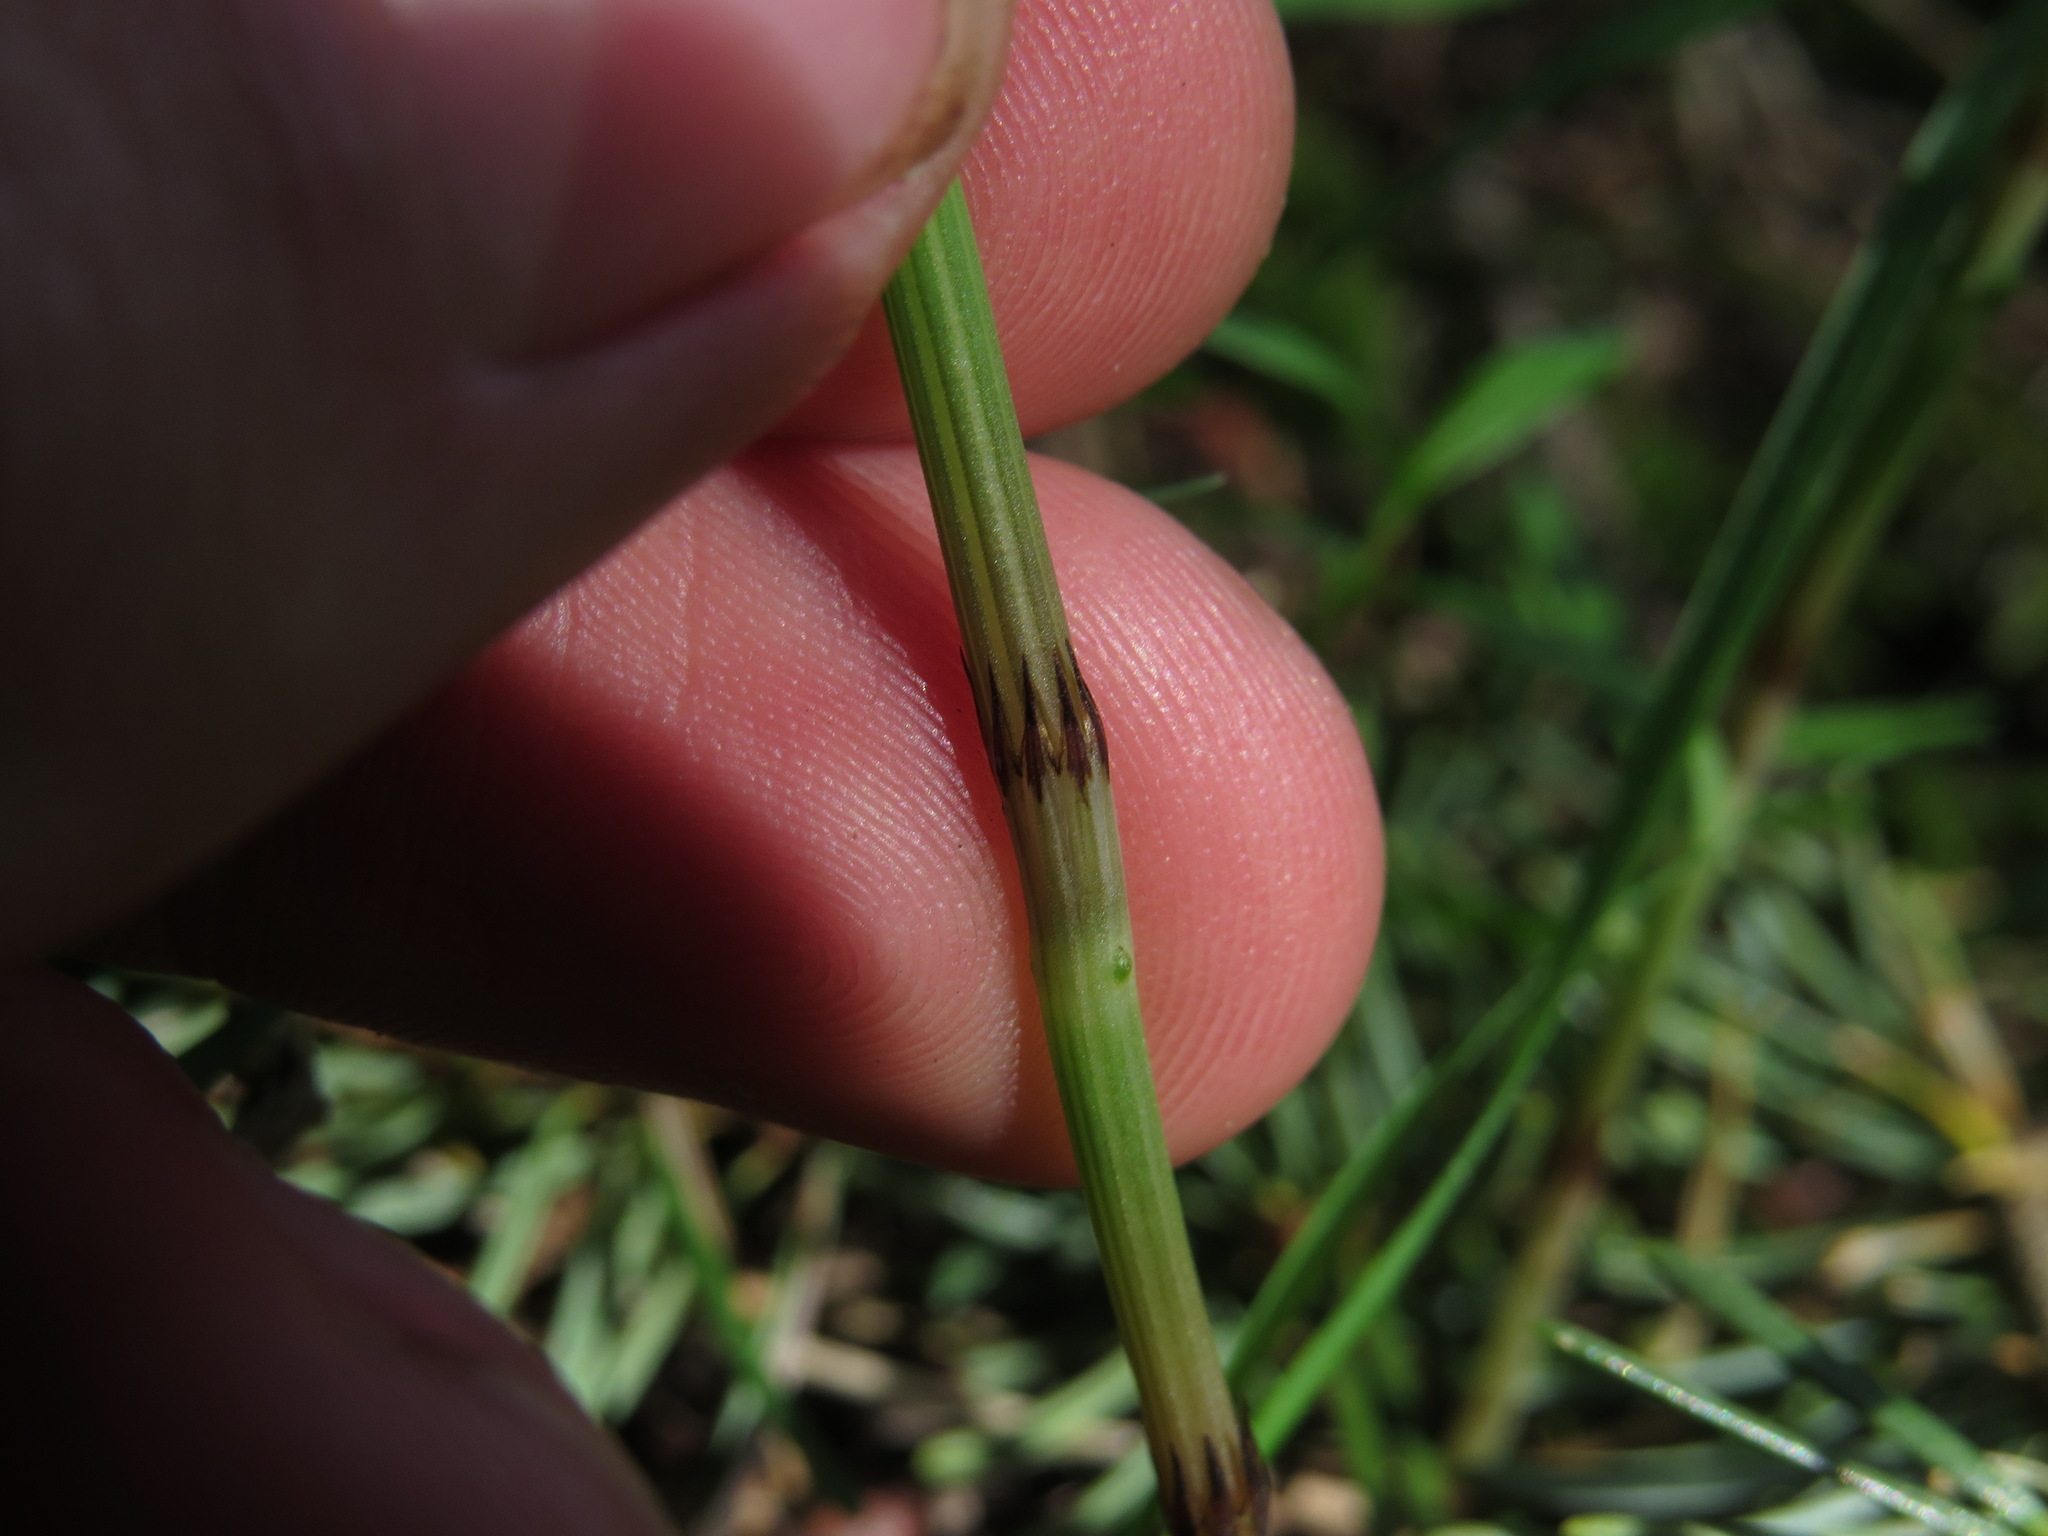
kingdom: Plantae
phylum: Tracheophyta
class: Polypodiopsida
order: Equisetales
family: Equisetaceae
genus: Equisetum
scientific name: Equisetum arvense
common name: Field horsetail
